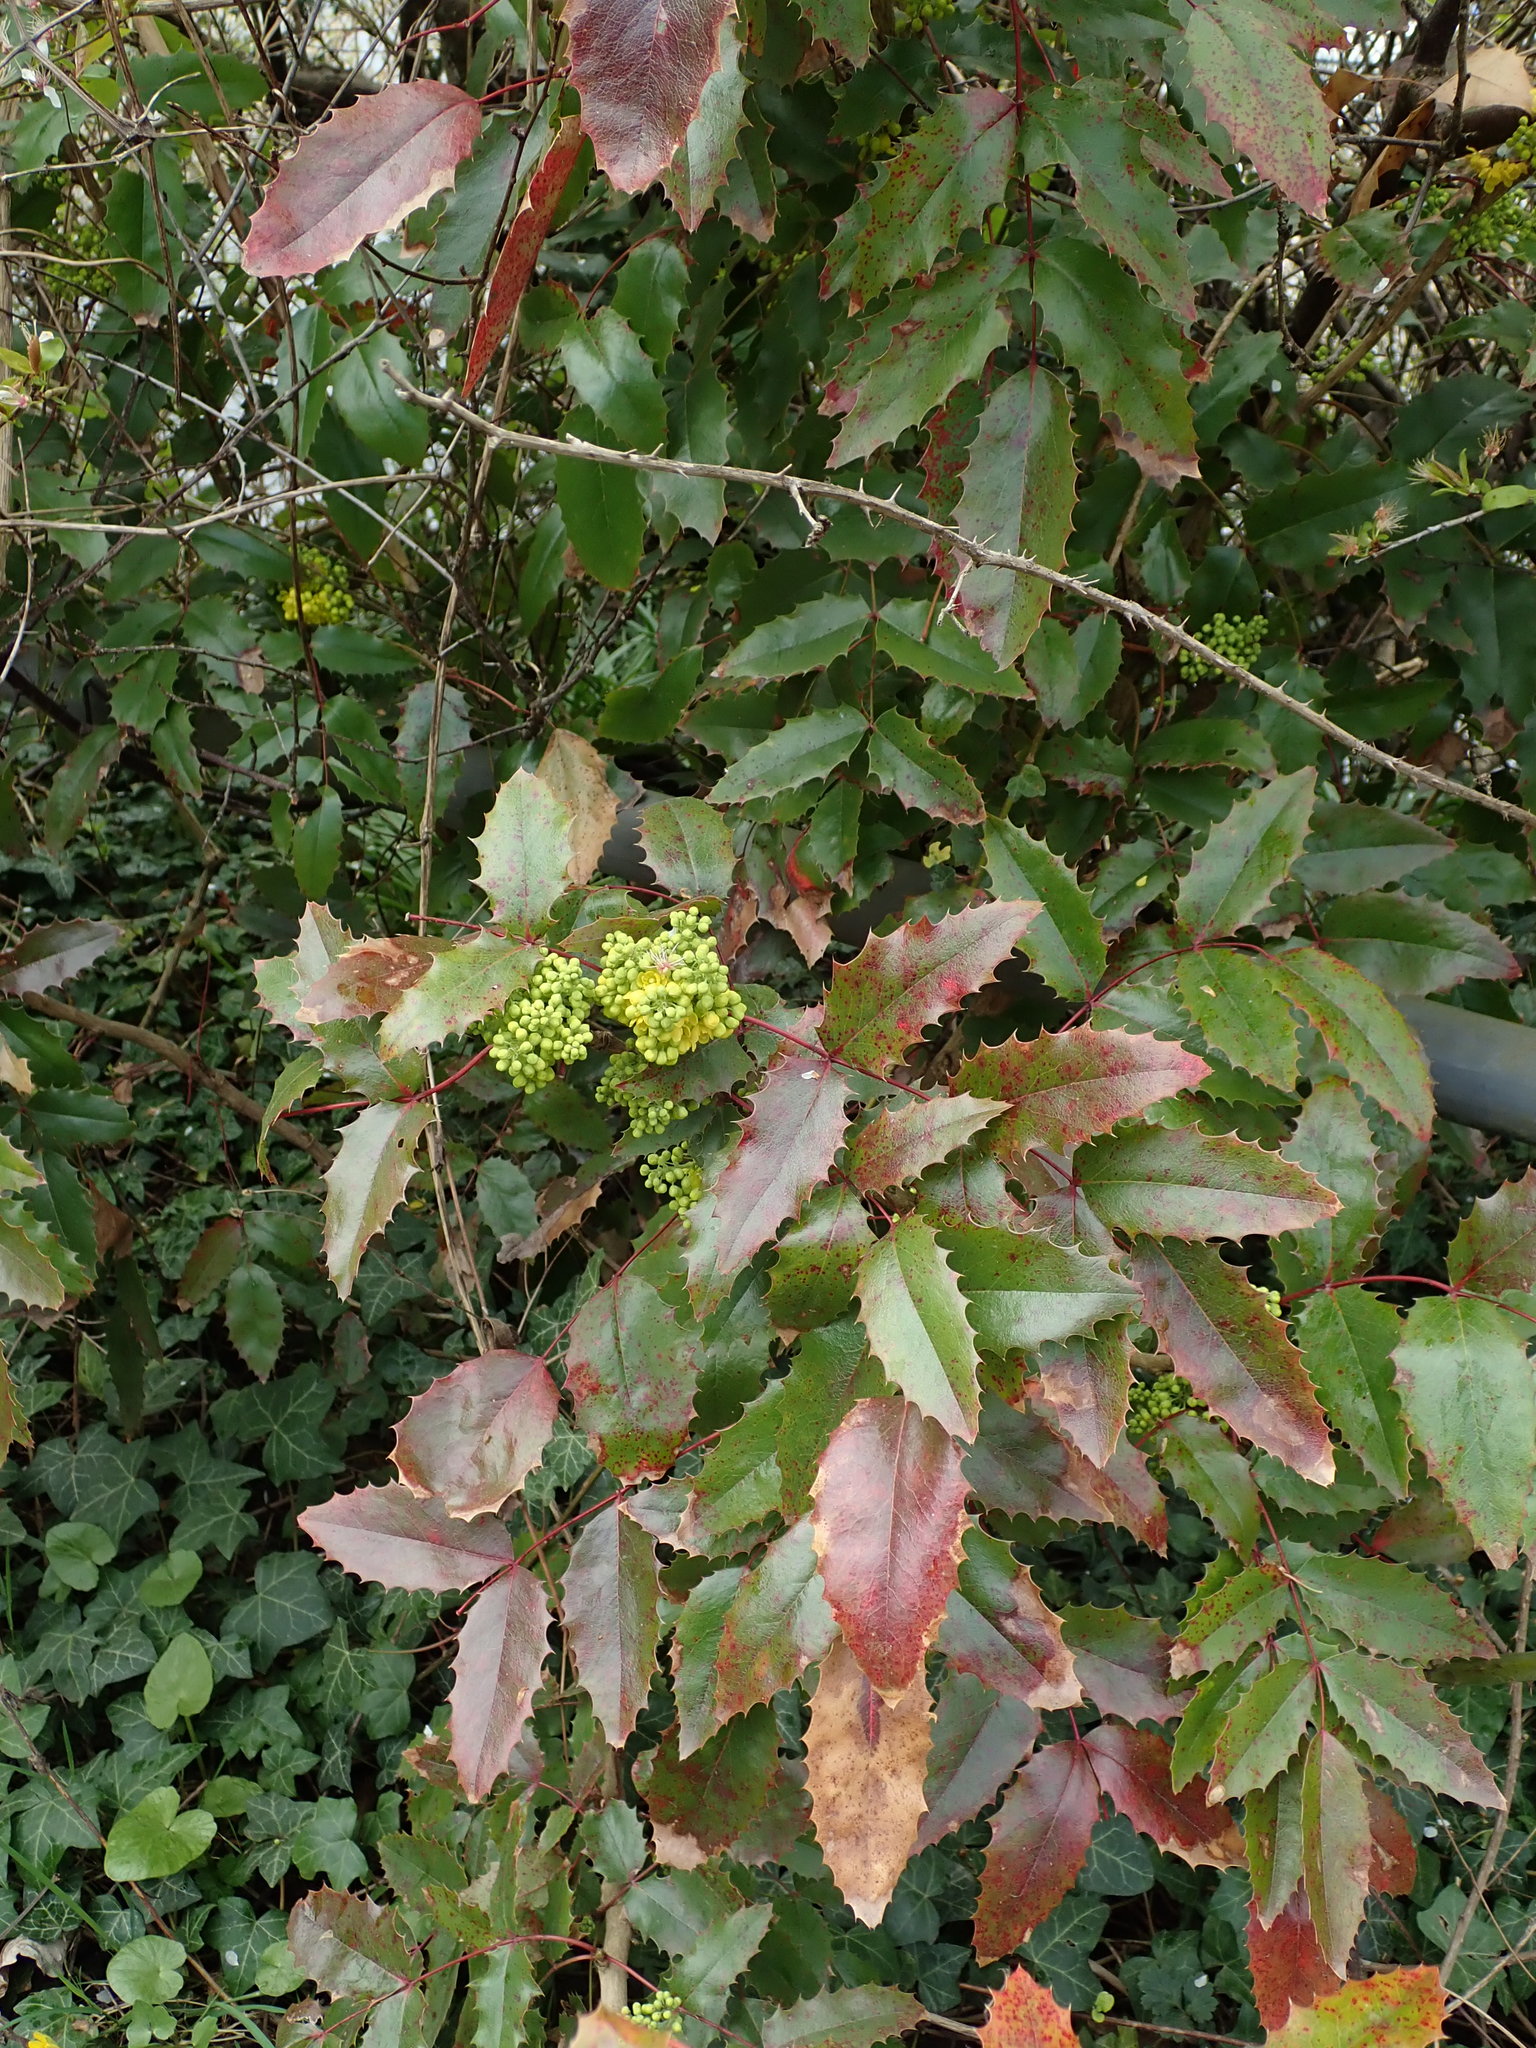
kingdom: Plantae
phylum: Tracheophyta
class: Magnoliopsida
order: Ranunculales
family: Berberidaceae
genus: Mahonia
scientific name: Mahonia aquifolium
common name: Oregon-grape
